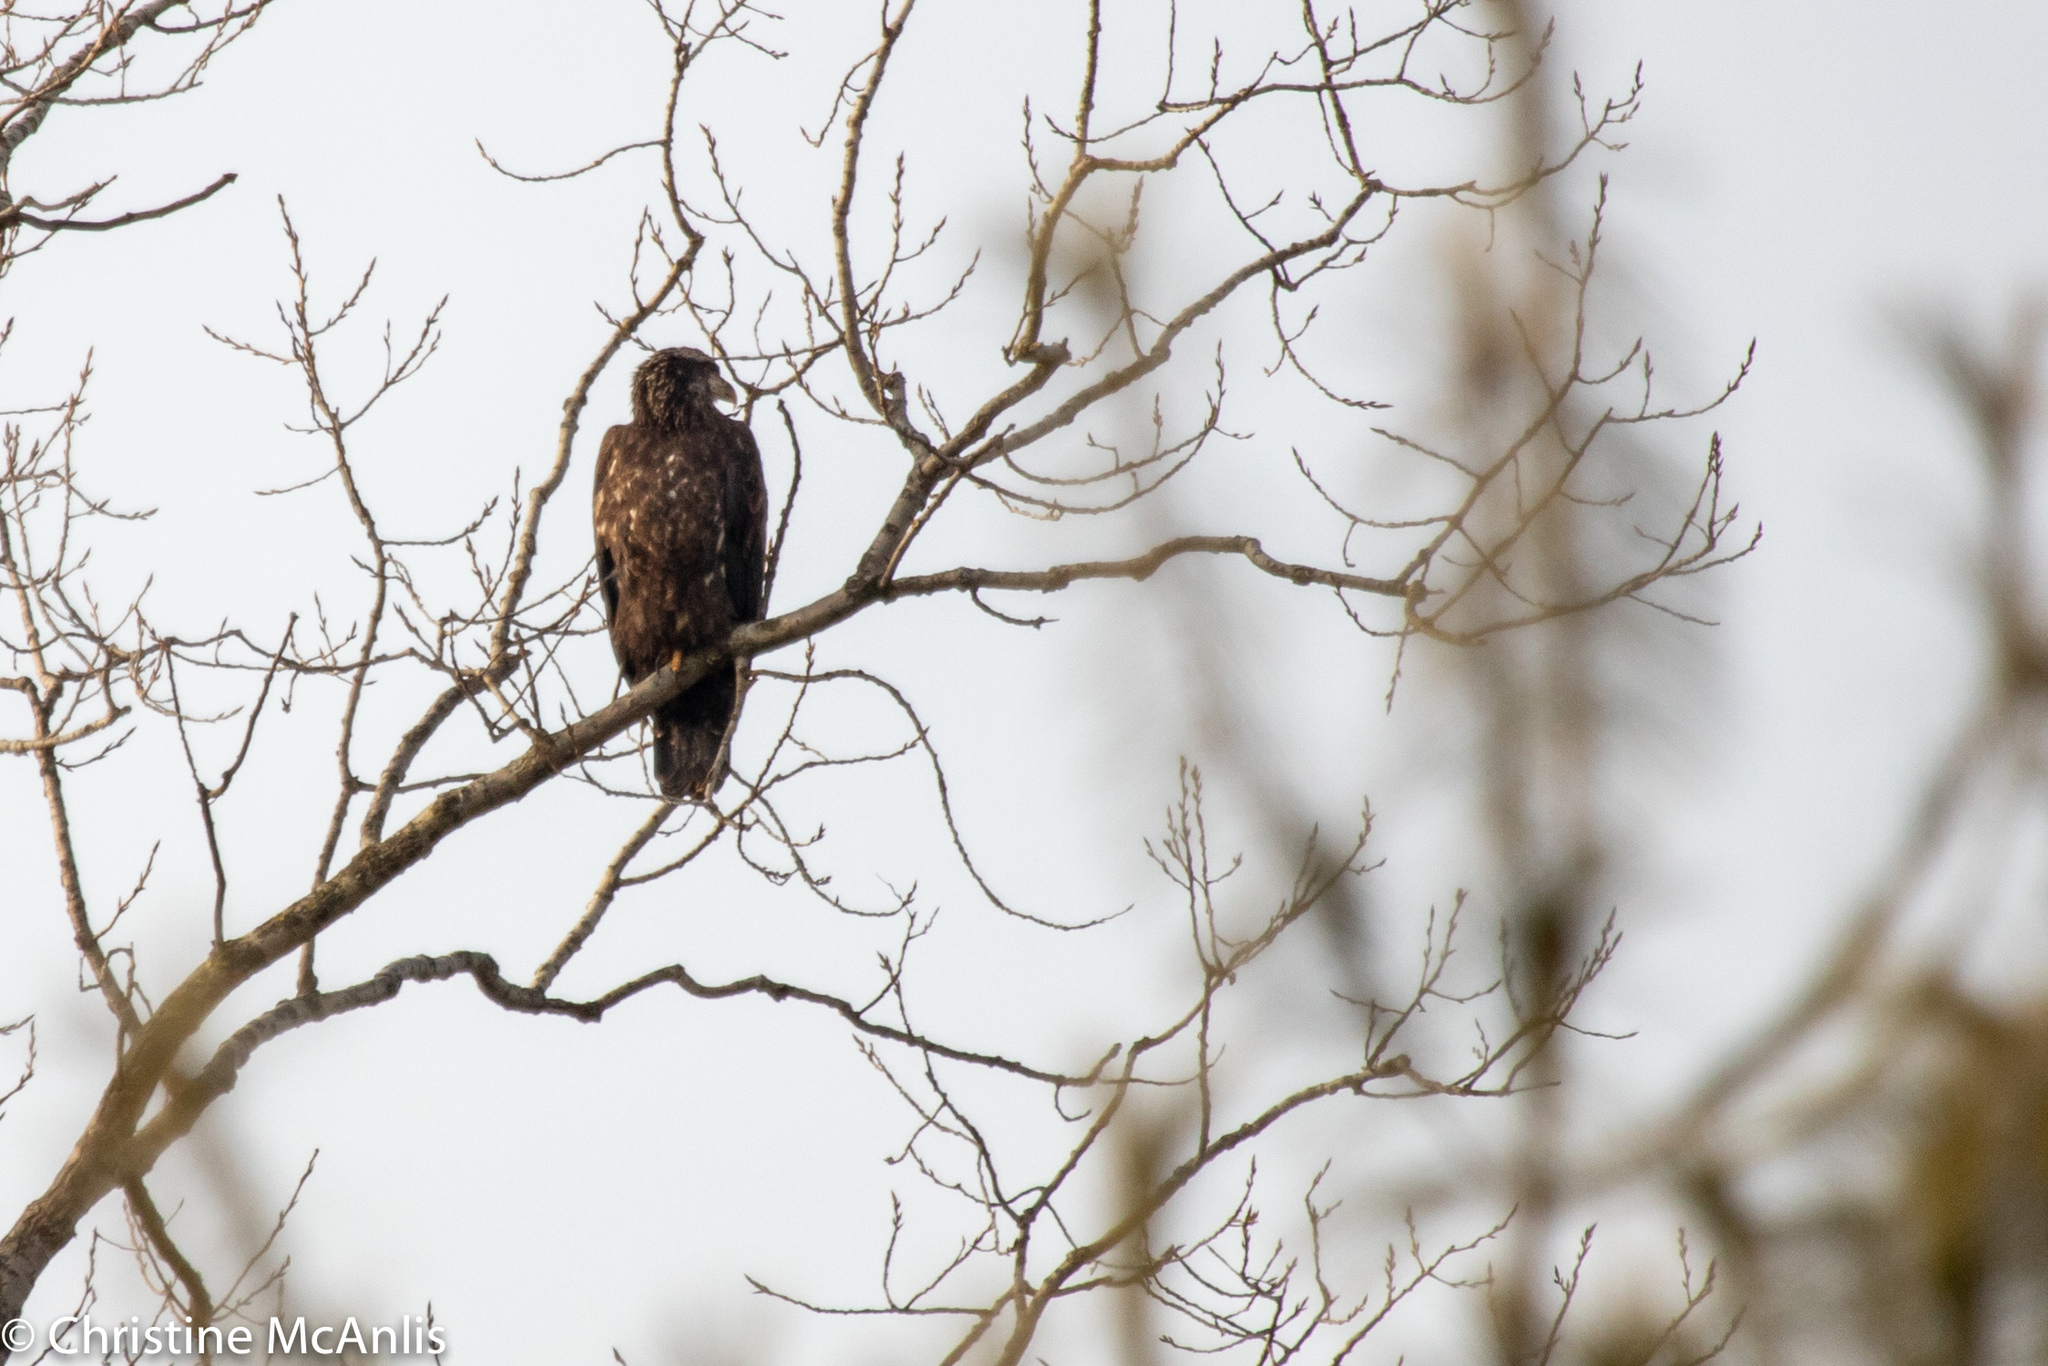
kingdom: Animalia
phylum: Chordata
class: Aves
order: Accipitriformes
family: Accipitridae
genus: Haliaeetus
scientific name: Haliaeetus leucocephalus
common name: Bald eagle
